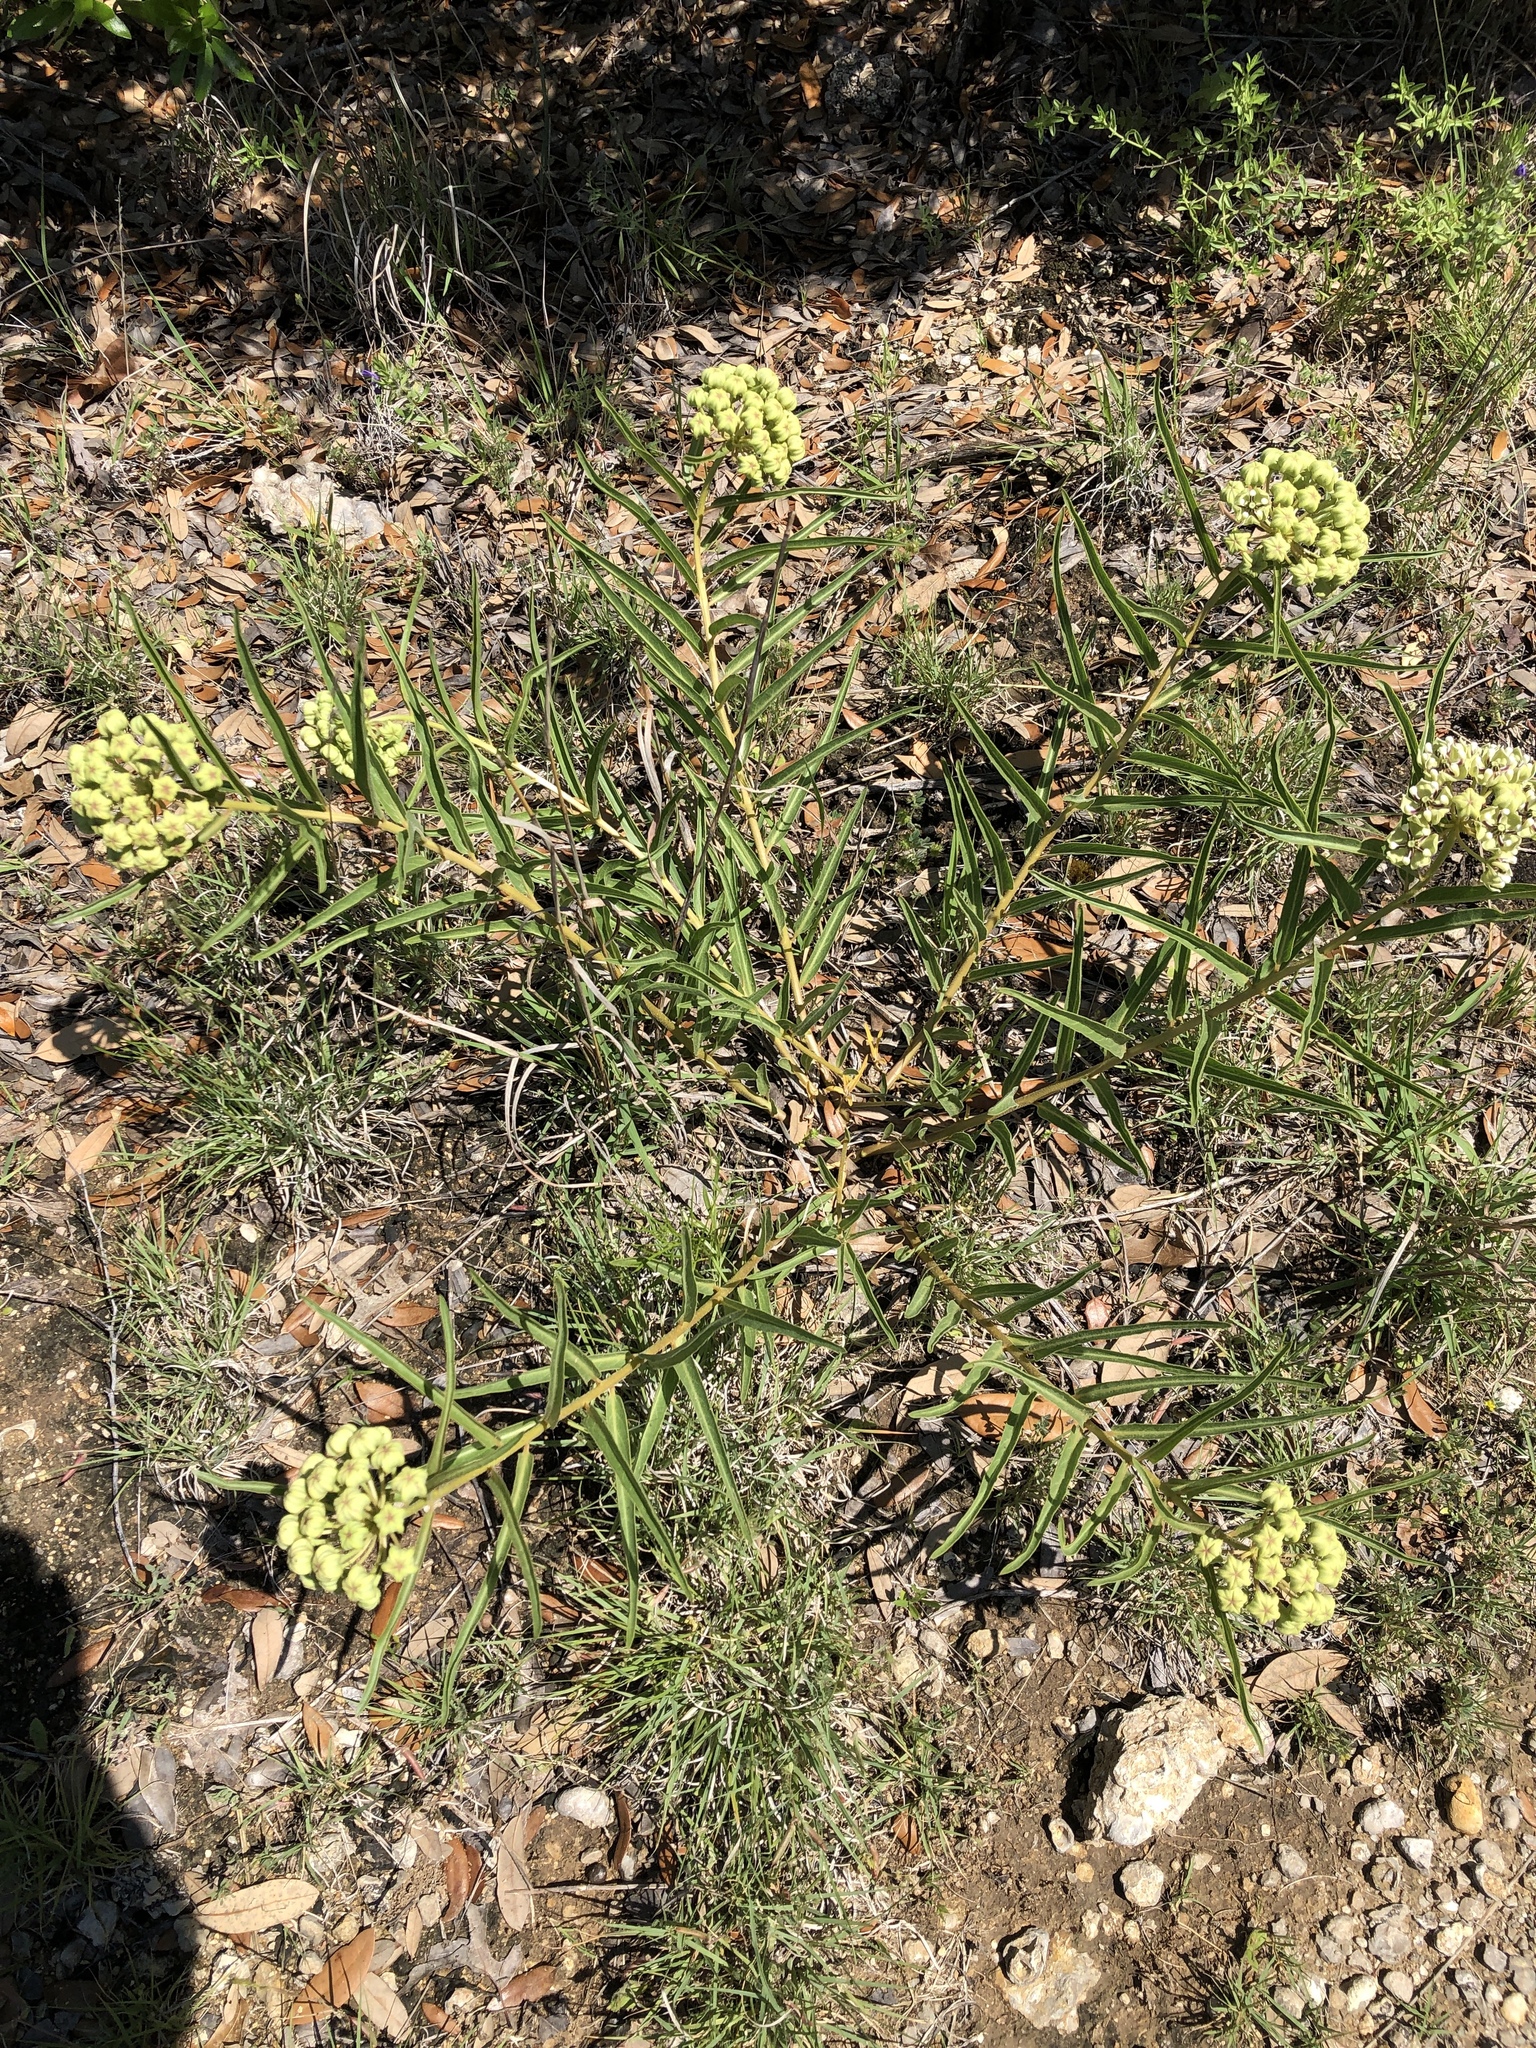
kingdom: Plantae
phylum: Tracheophyta
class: Magnoliopsida
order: Gentianales
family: Apocynaceae
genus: Asclepias
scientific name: Asclepias asperula
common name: Antelope horns
